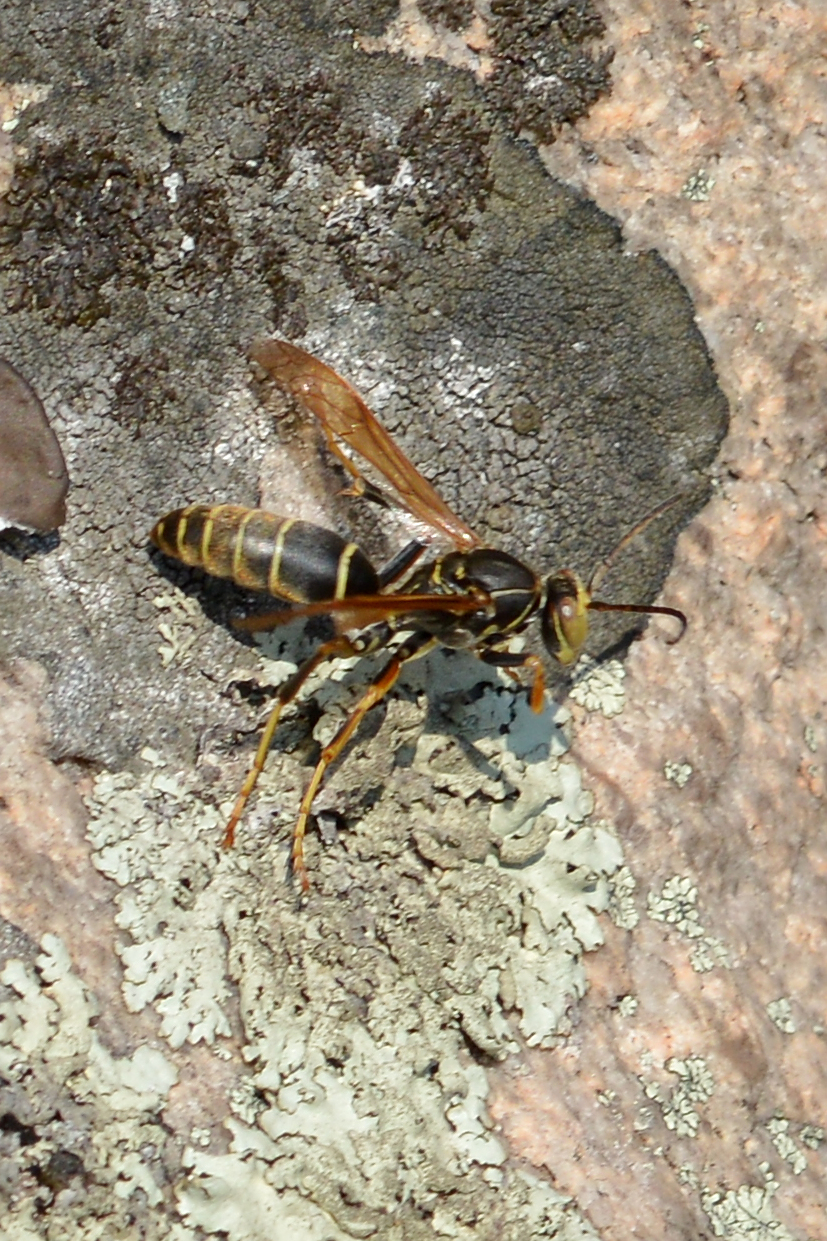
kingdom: Animalia
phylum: Arthropoda
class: Insecta
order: Hymenoptera
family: Eumenidae
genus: Polistes
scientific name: Polistes fuscatus
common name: Dark paper wasp
